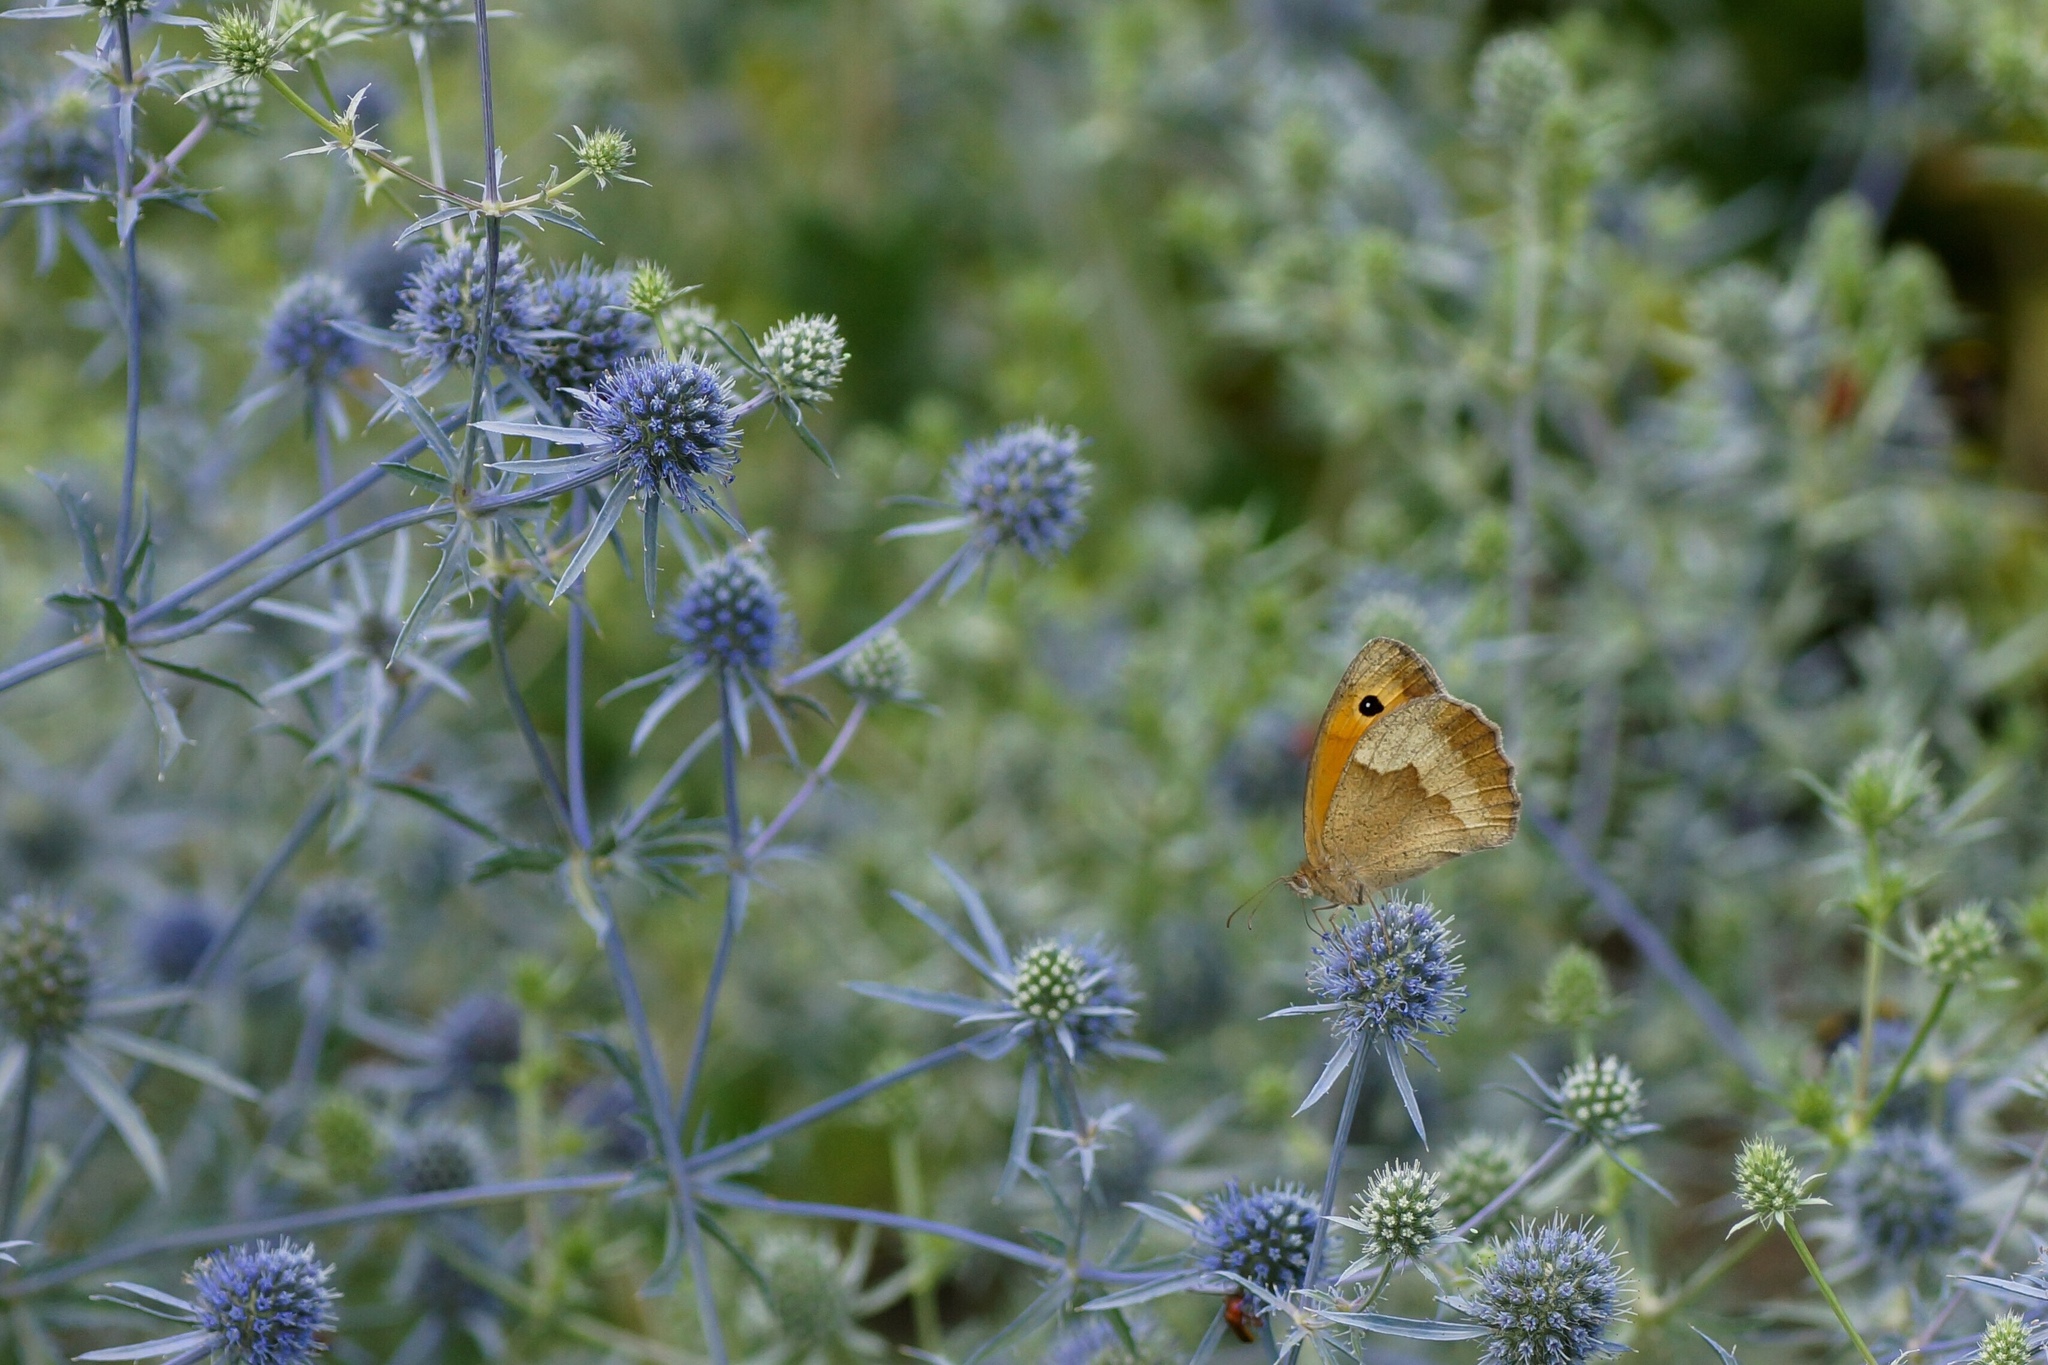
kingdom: Animalia
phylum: Arthropoda
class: Insecta
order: Lepidoptera
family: Nymphalidae
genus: Maniola
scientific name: Maniola jurtina
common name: Meadow brown
